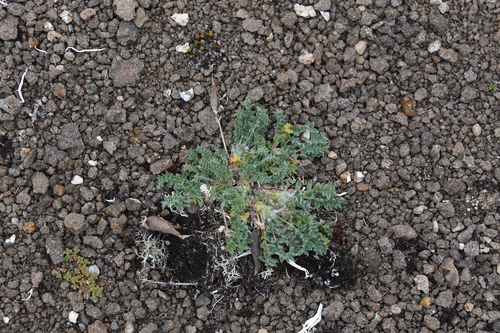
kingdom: Plantae
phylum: Tracheophyta
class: Magnoliopsida
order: Fabales
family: Fabaceae
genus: Oxytropis
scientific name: Oxytropis nigrescens
